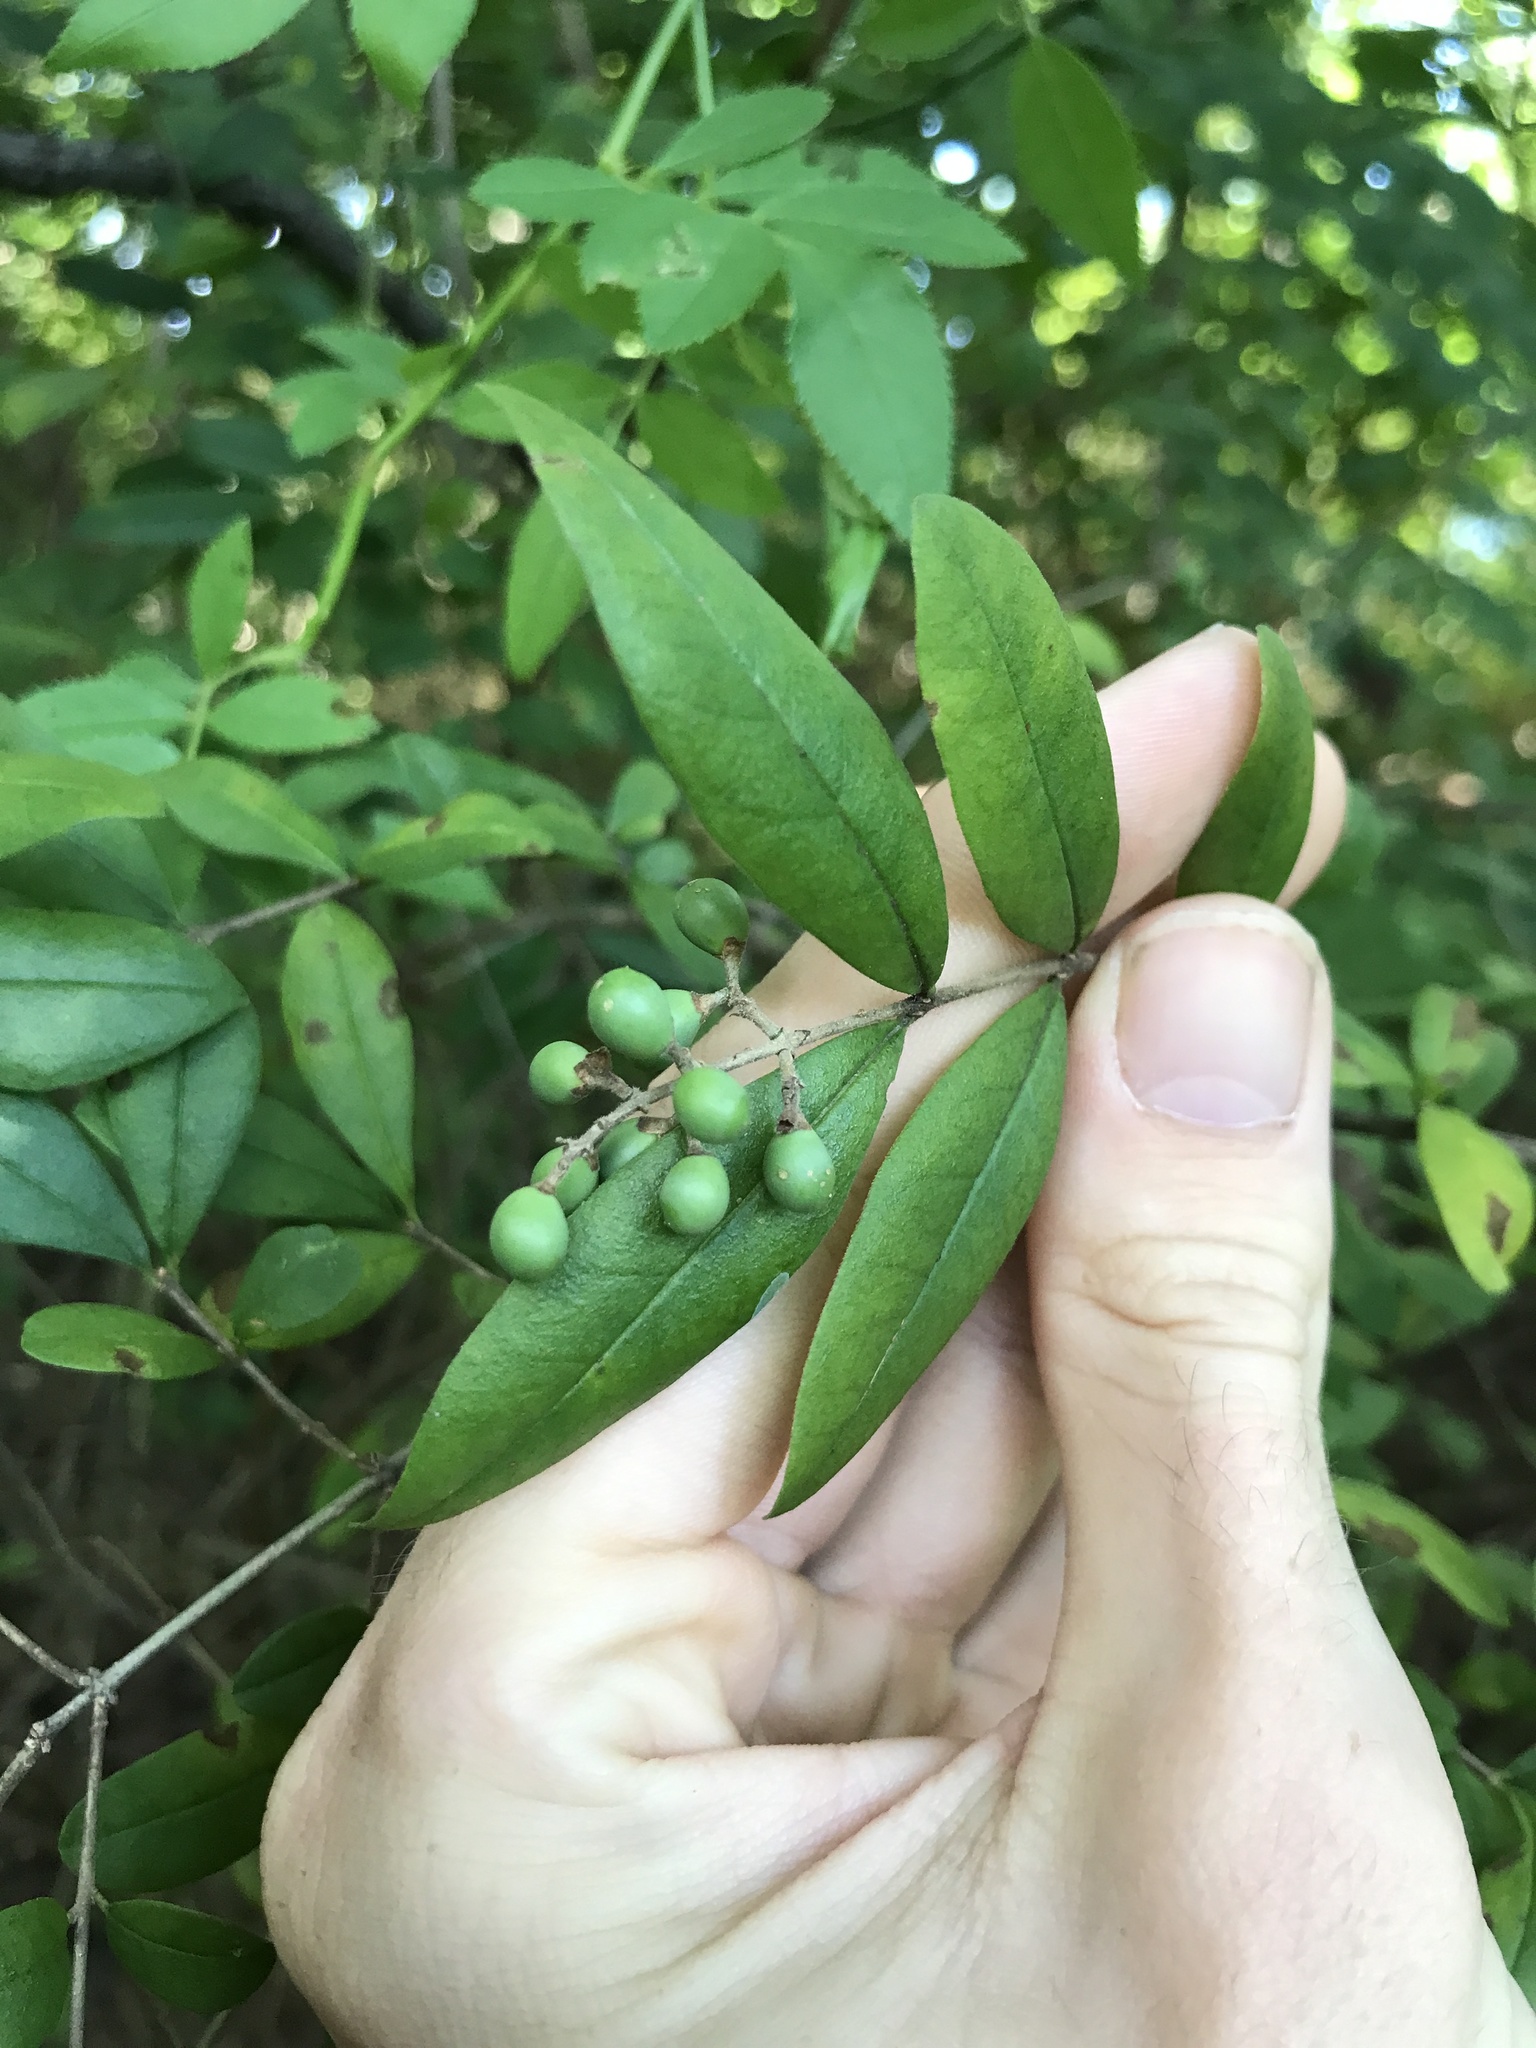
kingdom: Plantae
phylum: Tracheophyta
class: Magnoliopsida
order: Lamiales
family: Oleaceae
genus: Ligustrum
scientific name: Ligustrum obtusifolium
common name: Border privet
